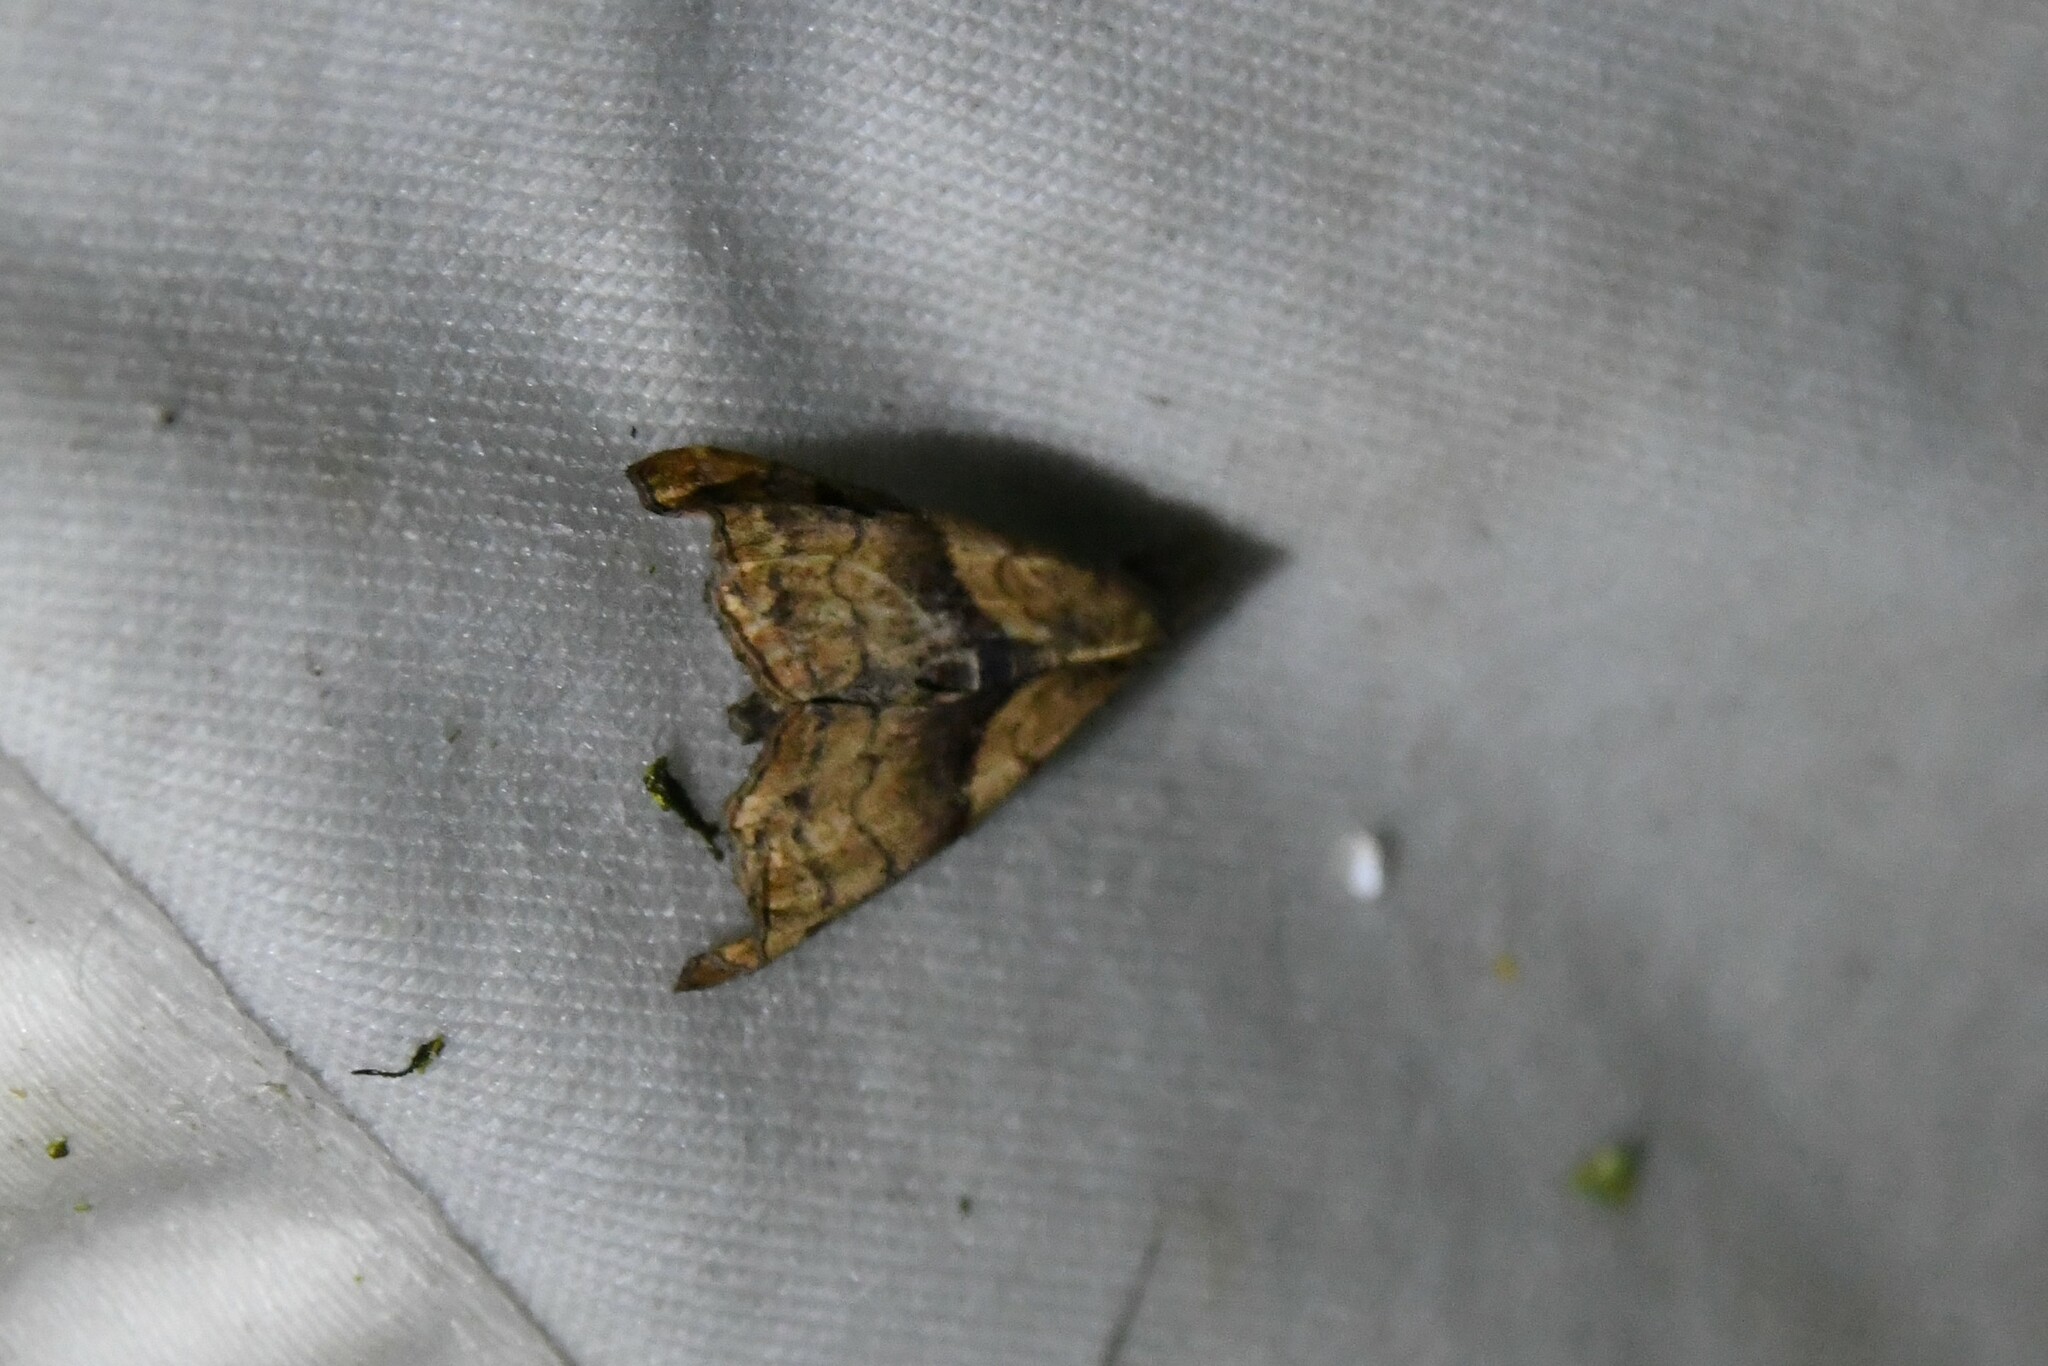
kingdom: Animalia
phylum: Arthropoda
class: Insecta
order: Lepidoptera
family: Erebidae
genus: Palthis
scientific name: Palthis angulalis
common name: Dark-spotted palthis moth
